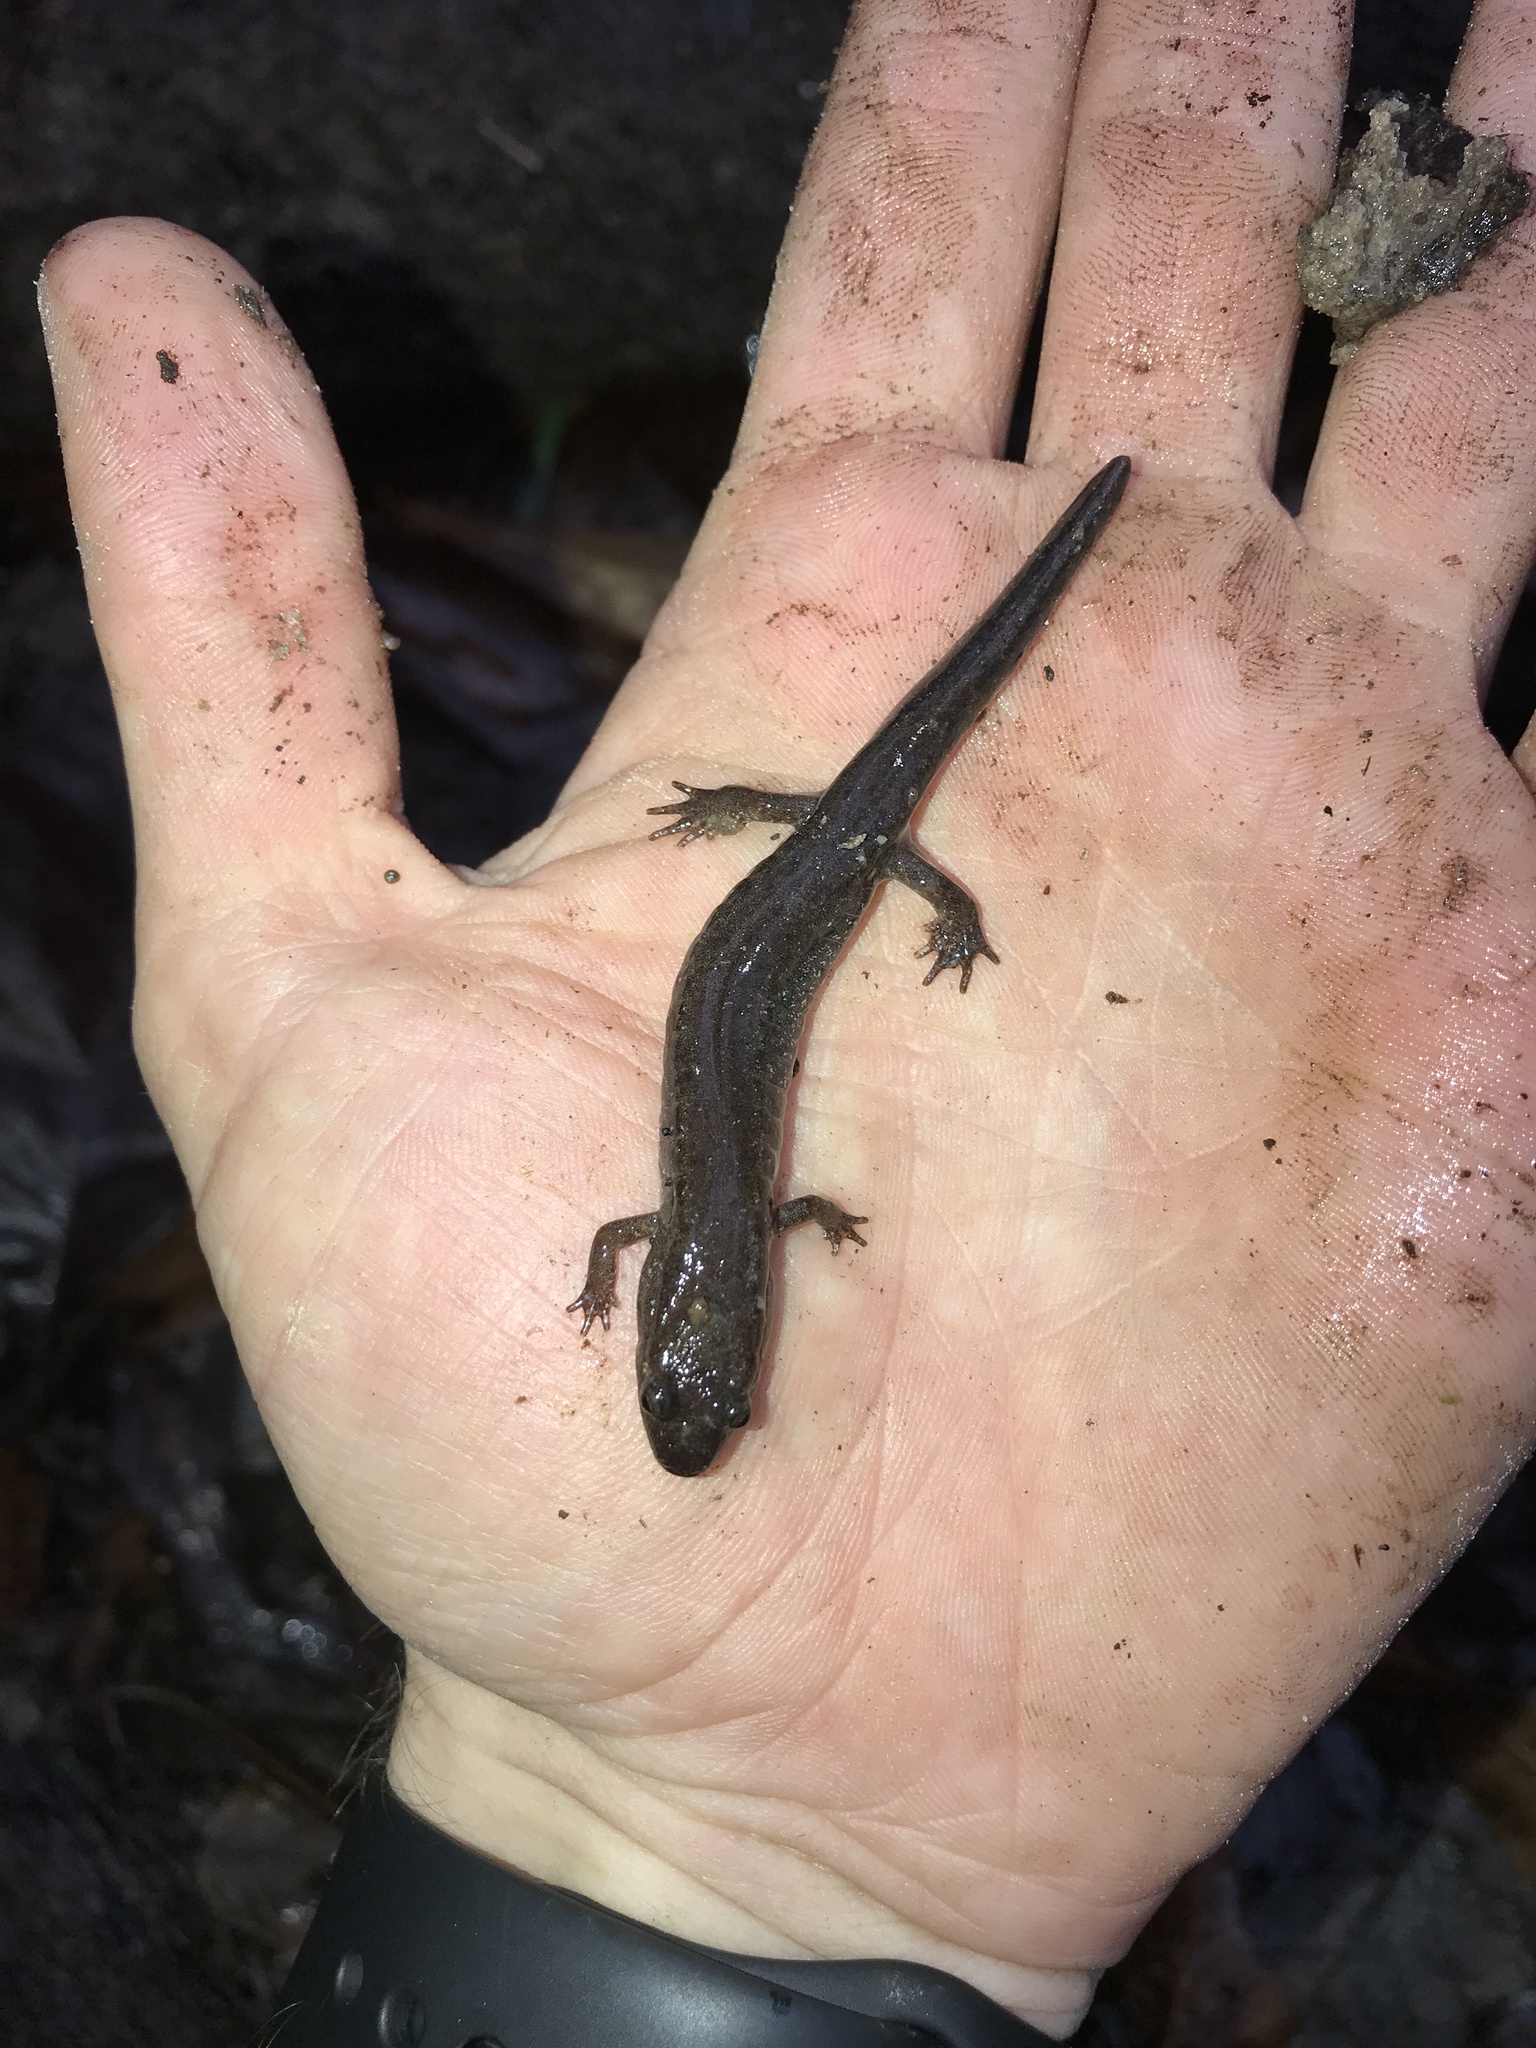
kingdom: Animalia
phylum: Chordata
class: Amphibia
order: Caudata
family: Plethodontidae
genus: Desmognathus
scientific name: Desmognathus conanti
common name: Spotted dusky salamander
